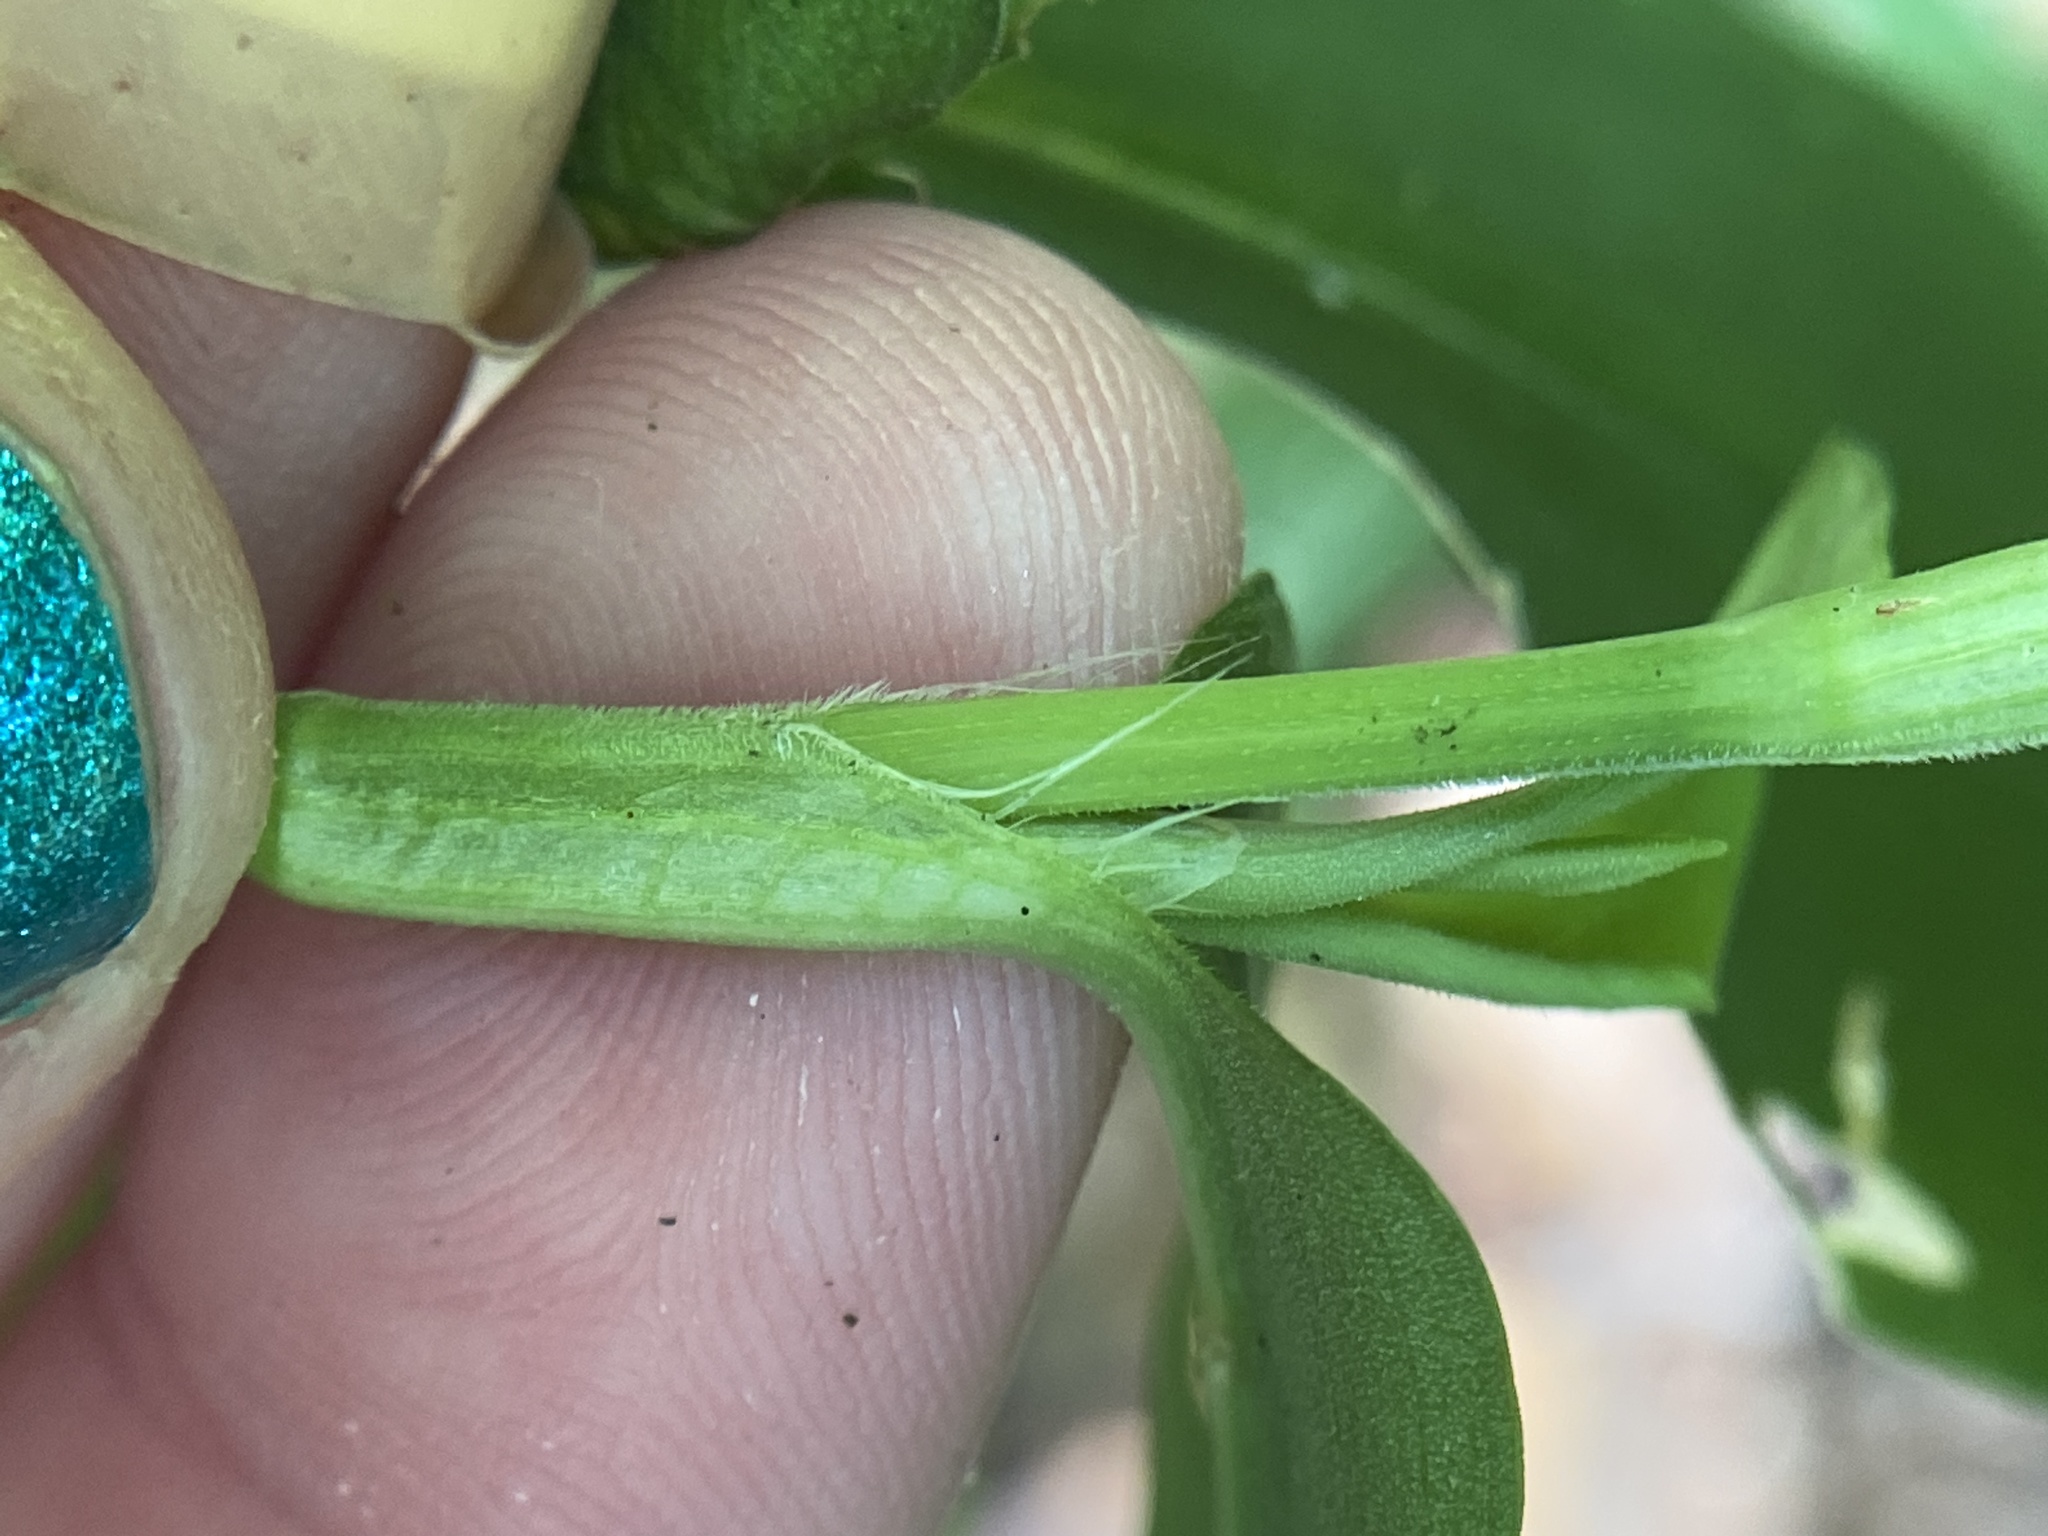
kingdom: Plantae
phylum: Tracheophyta
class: Liliopsida
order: Commelinales
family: Commelinaceae
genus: Commelina
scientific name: Commelina communis
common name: Asiatic dayflower
